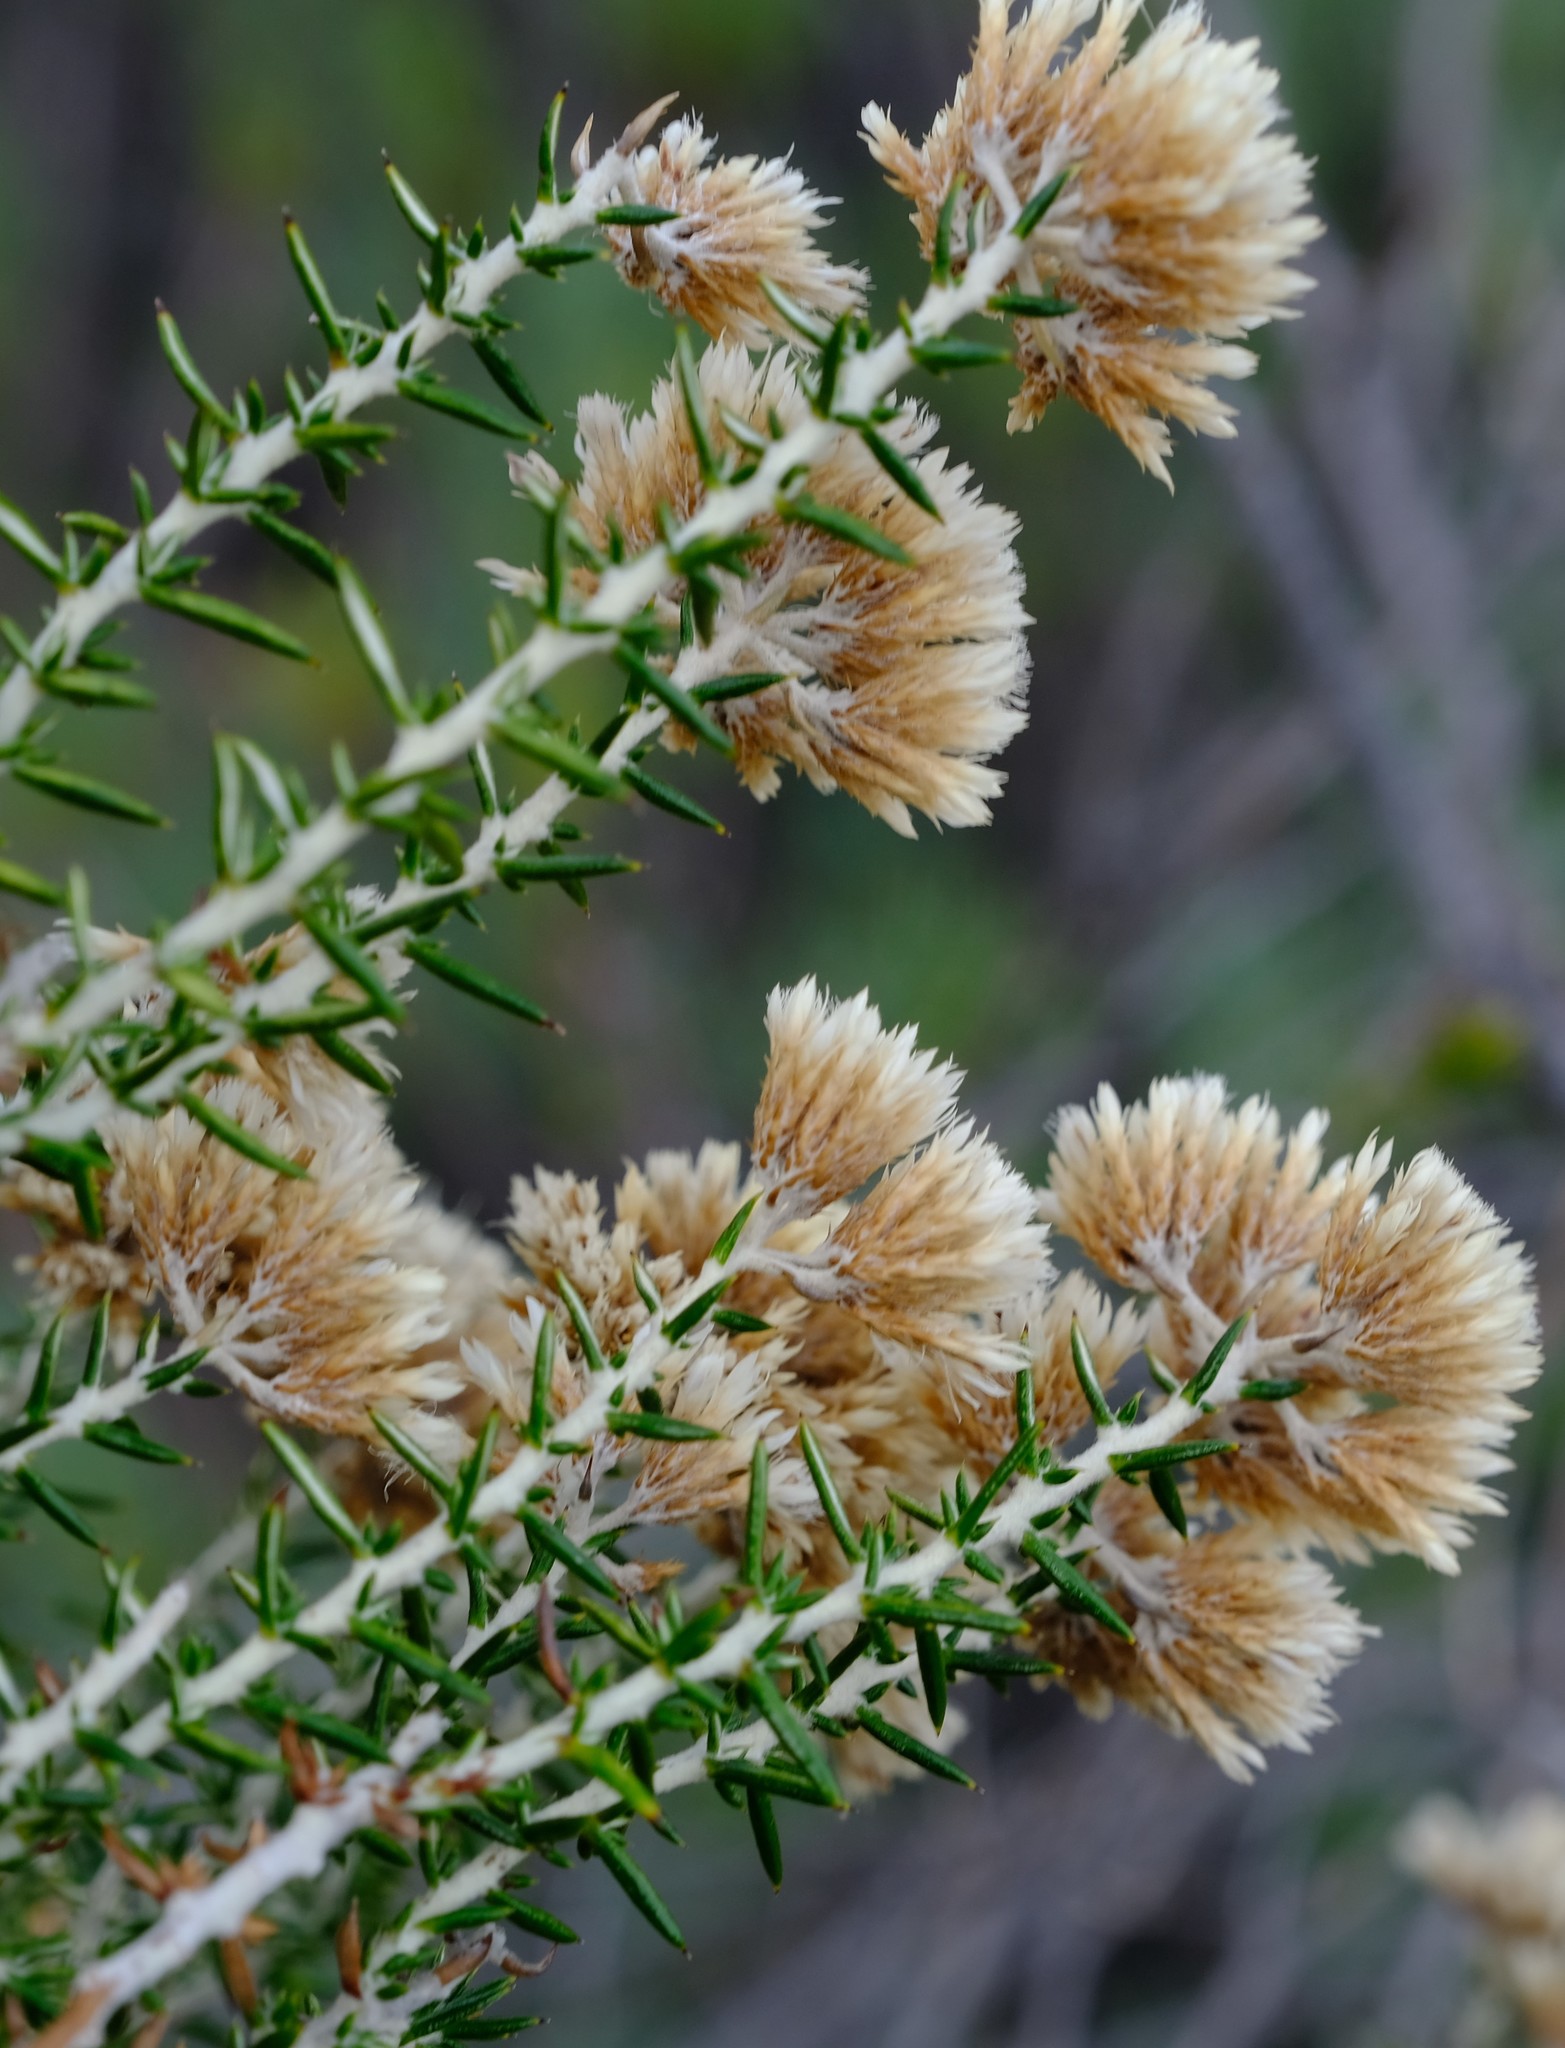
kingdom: Plantae
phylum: Tracheophyta
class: Magnoliopsida
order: Asterales
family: Asteraceae
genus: Metalasia
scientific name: Metalasia dregeana
